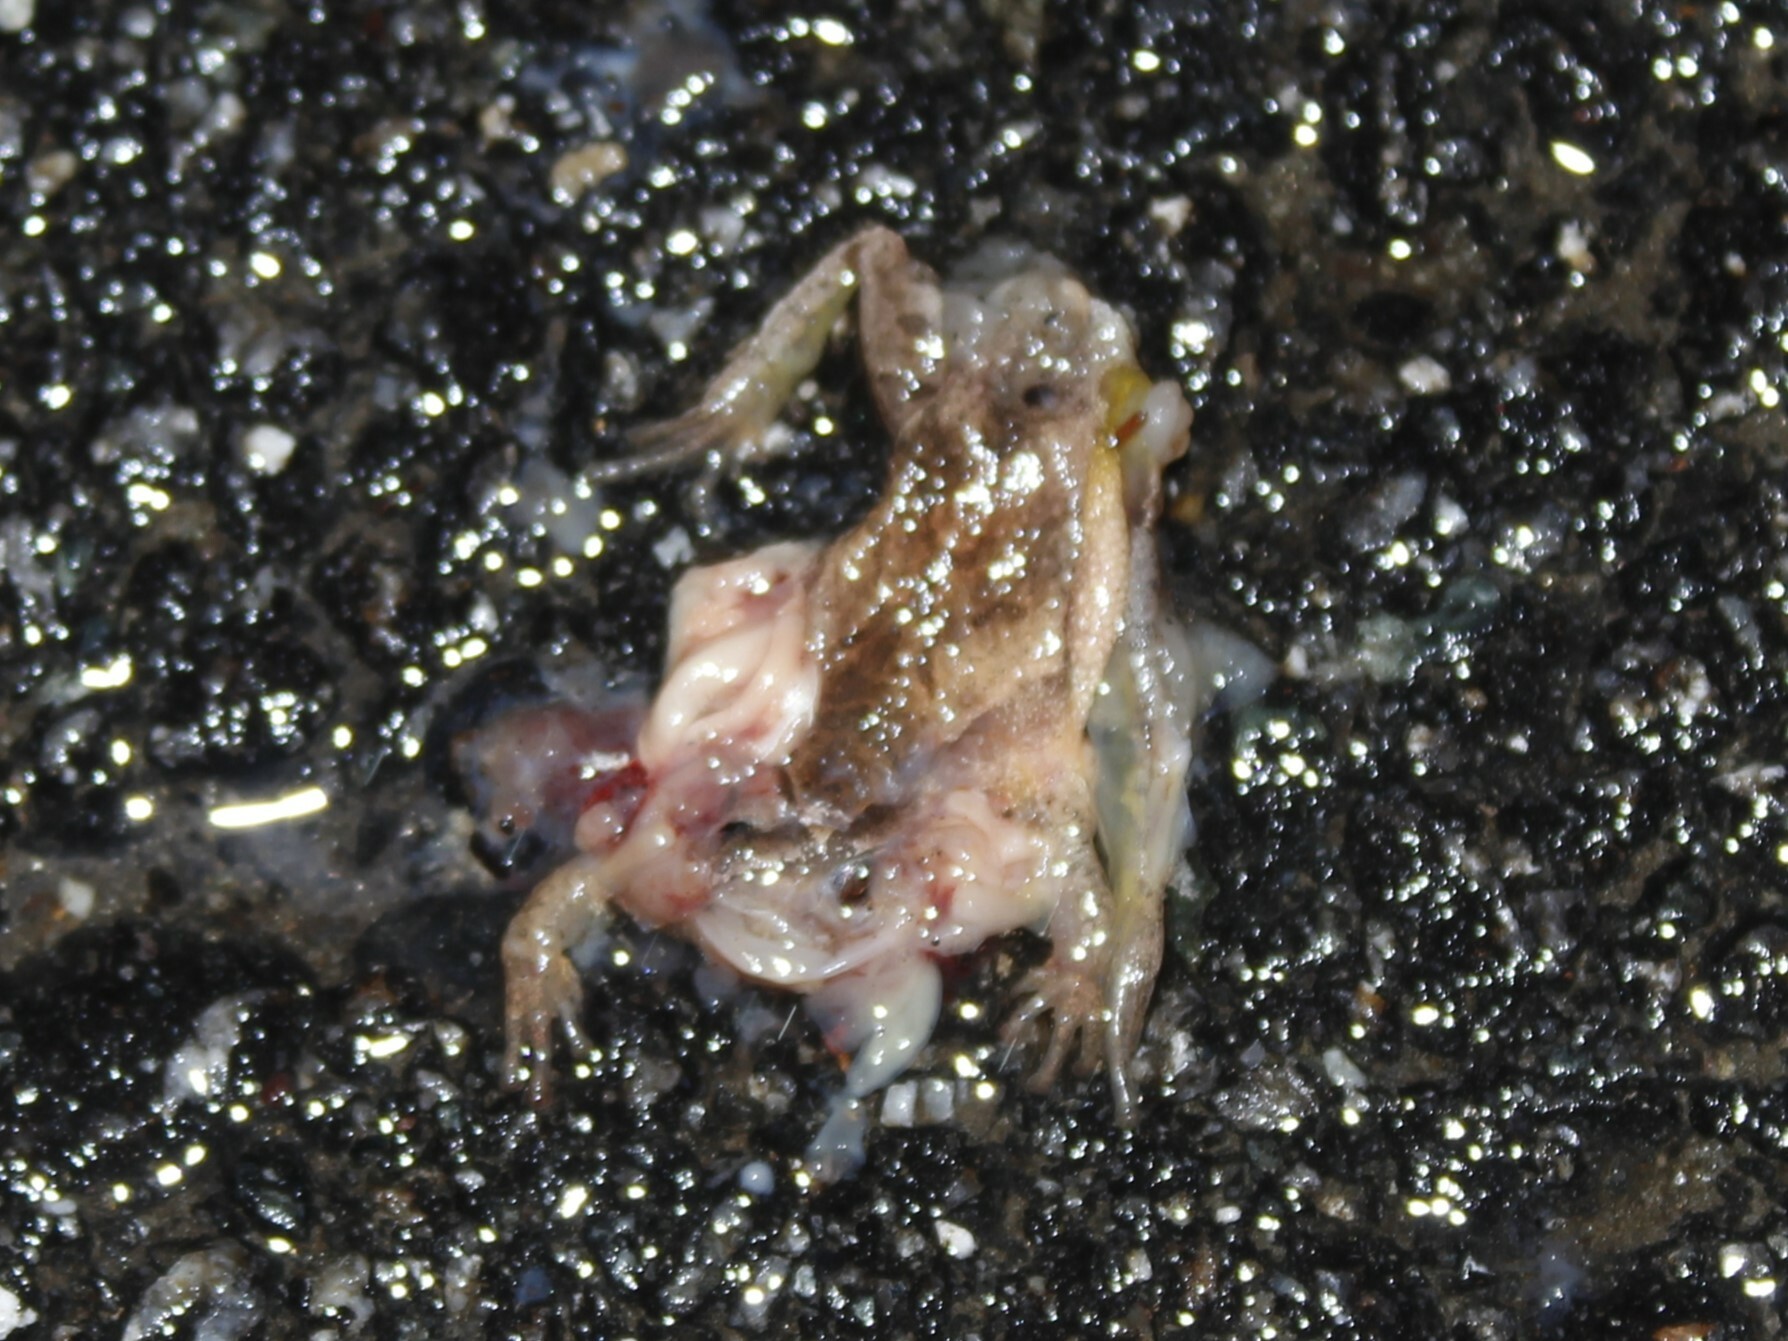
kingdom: Animalia
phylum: Chordata
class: Amphibia
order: Anura
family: Hylidae
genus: Pseudacris
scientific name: Pseudacris crucifer
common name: Spring peeper
